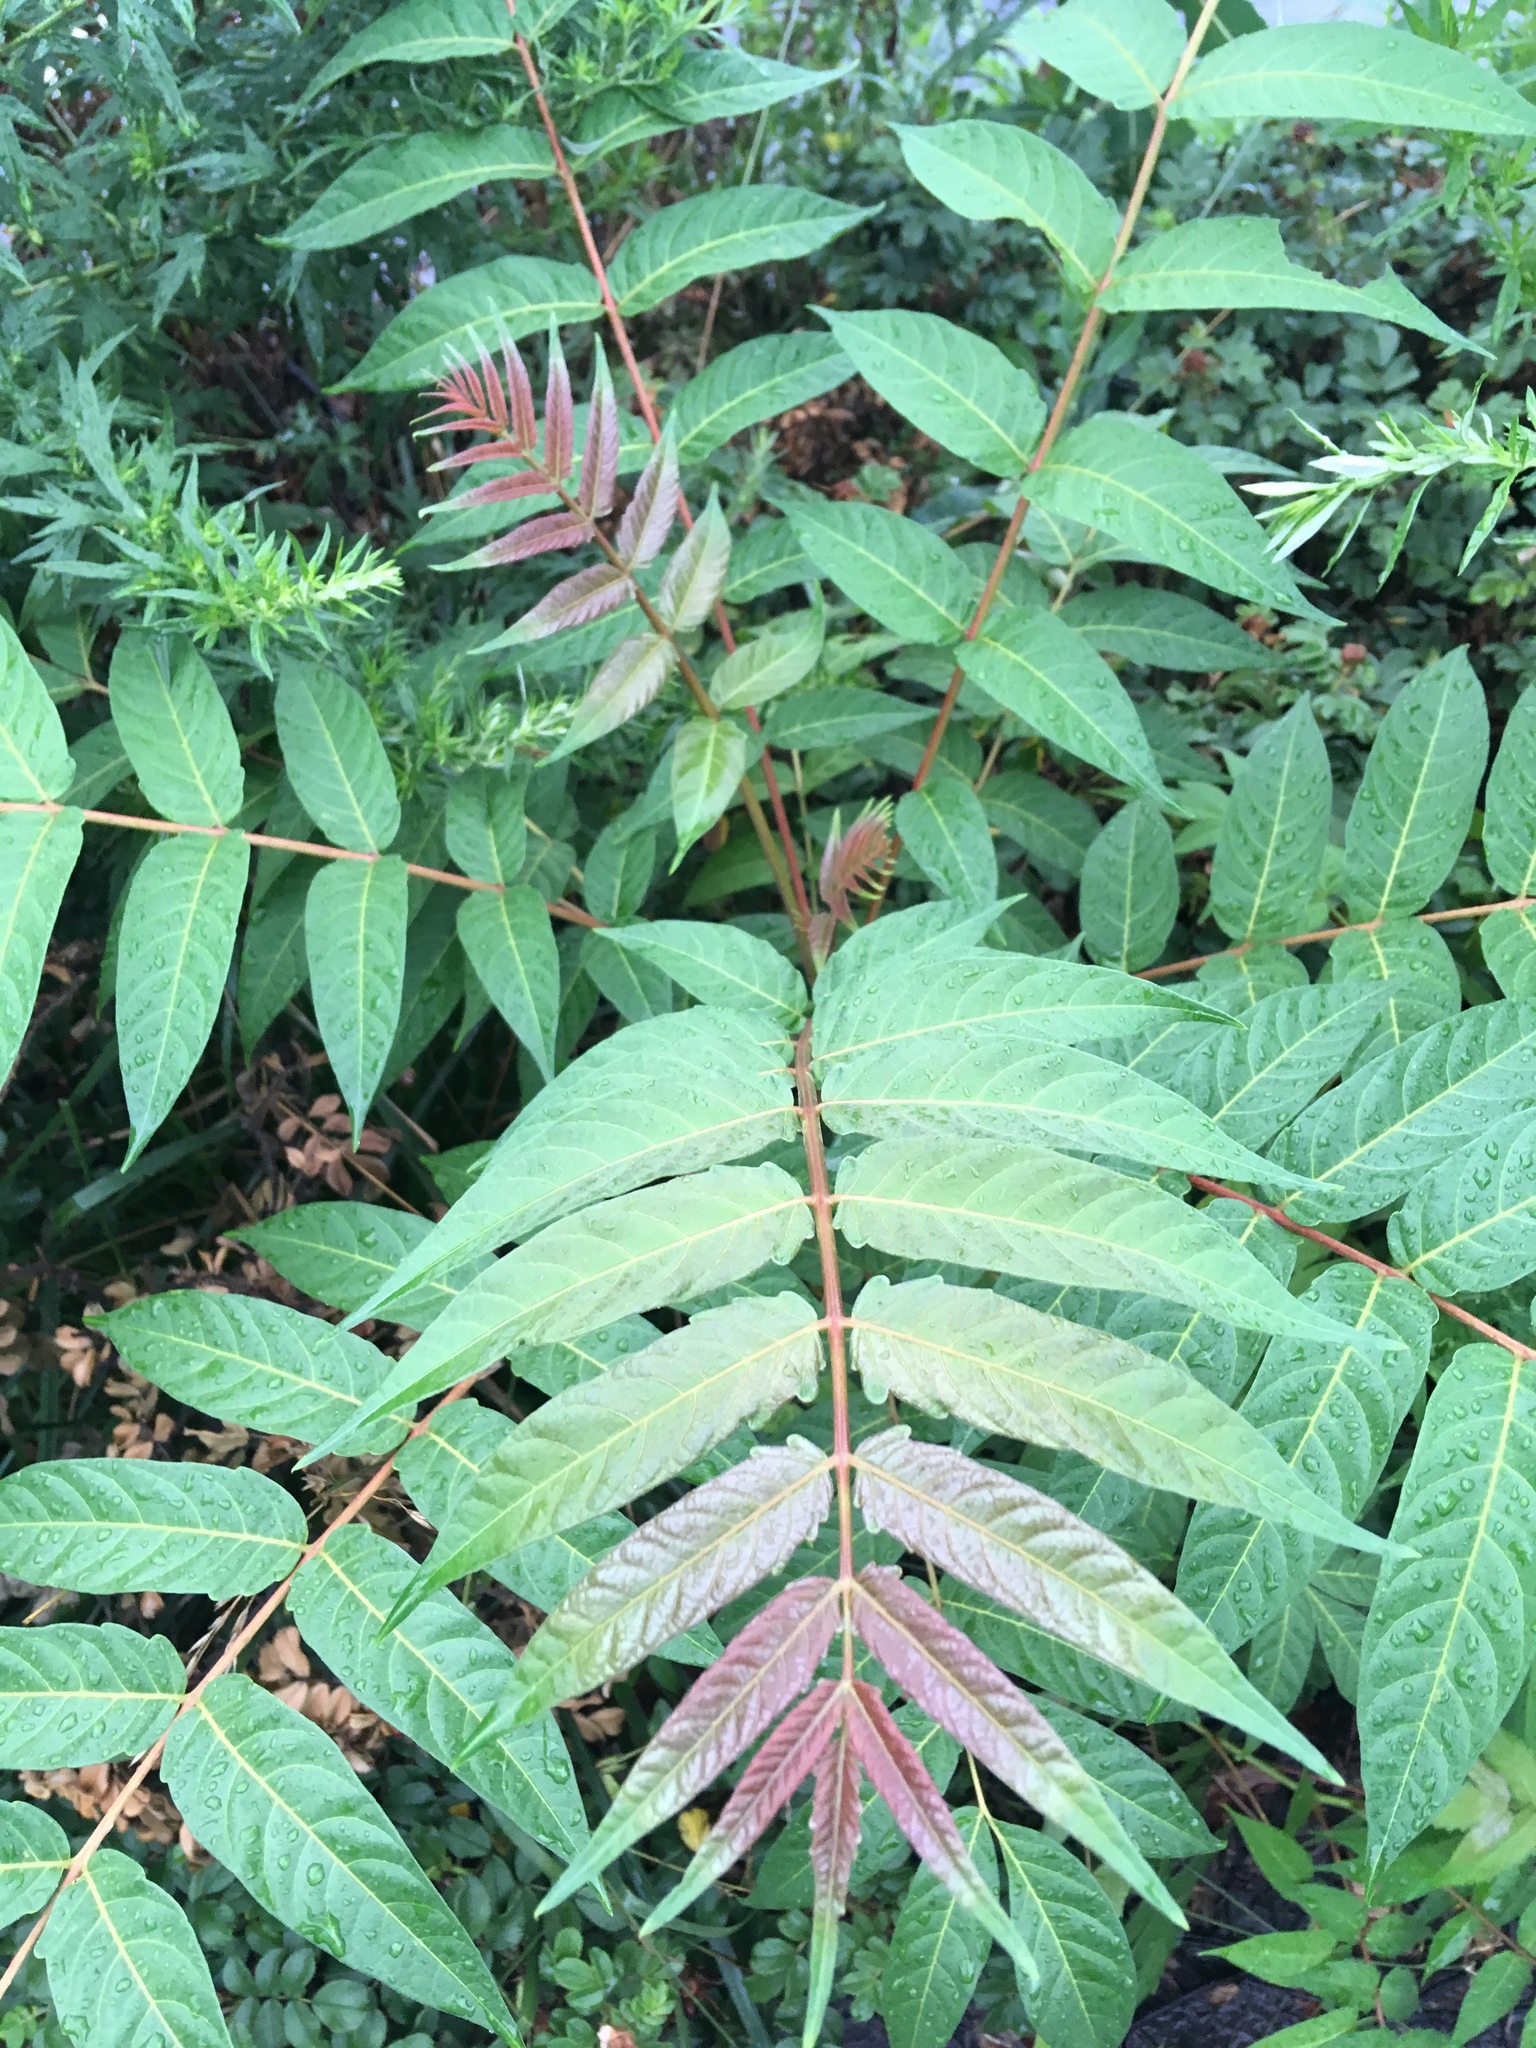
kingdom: Plantae
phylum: Tracheophyta
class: Magnoliopsida
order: Sapindales
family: Simaroubaceae
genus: Ailanthus
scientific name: Ailanthus altissima
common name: Tree-of-heaven
